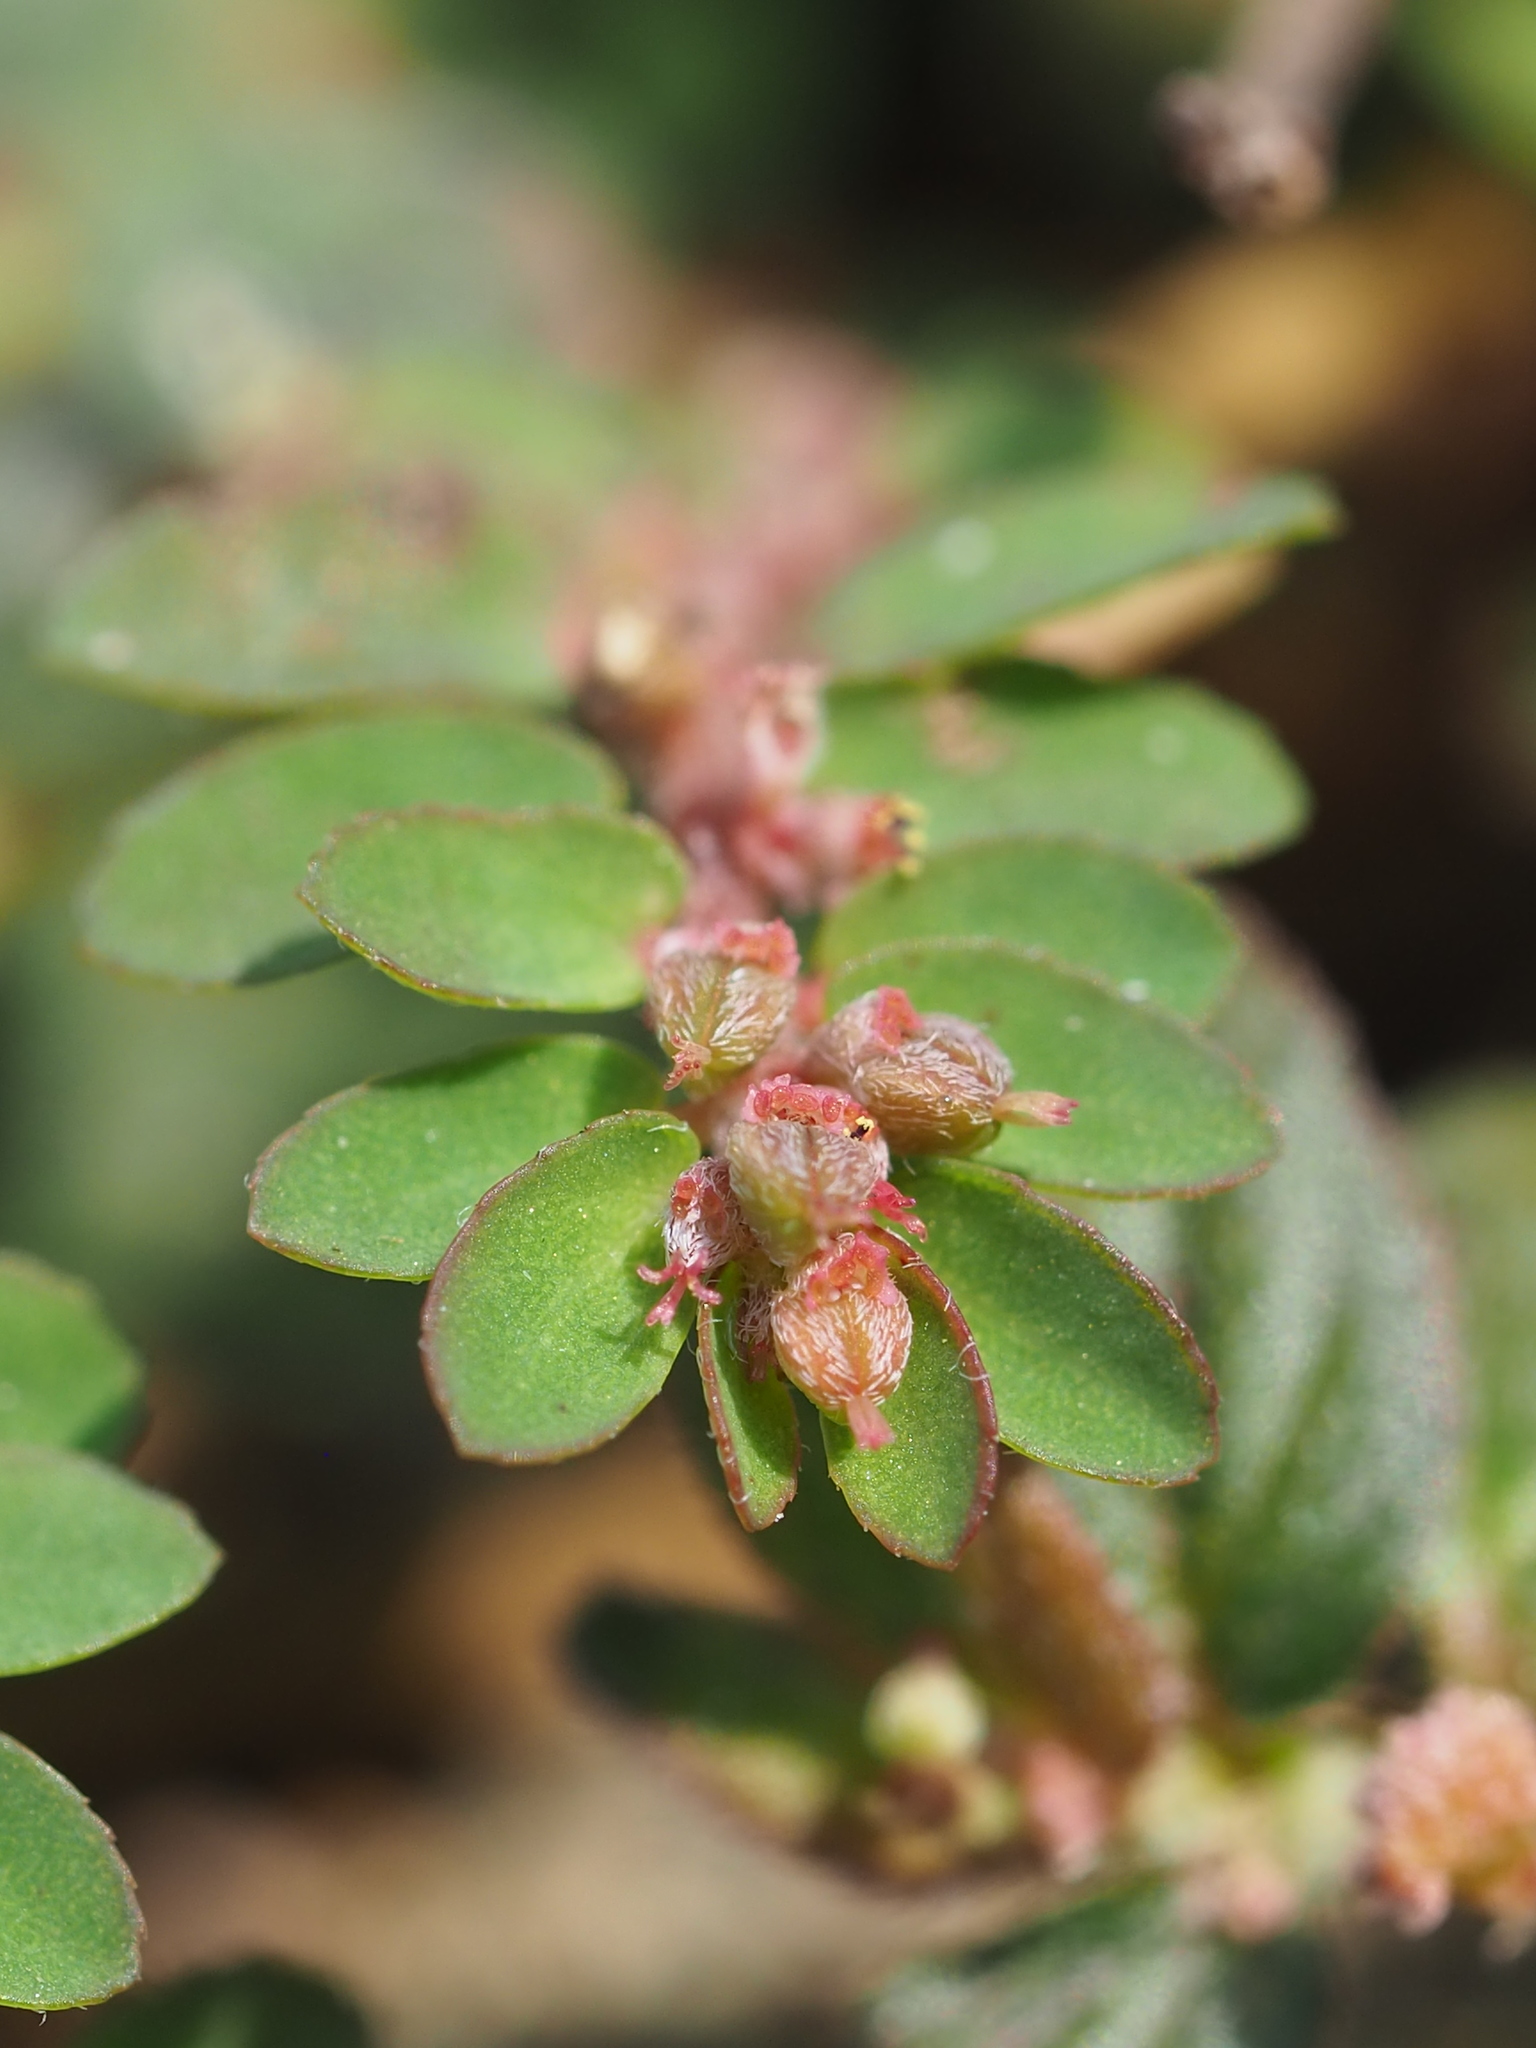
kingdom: Plantae
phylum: Tracheophyta
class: Magnoliopsida
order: Malpighiales
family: Euphorbiaceae
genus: Euphorbia
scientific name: Euphorbia thymifolia
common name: Gulf sandmat
